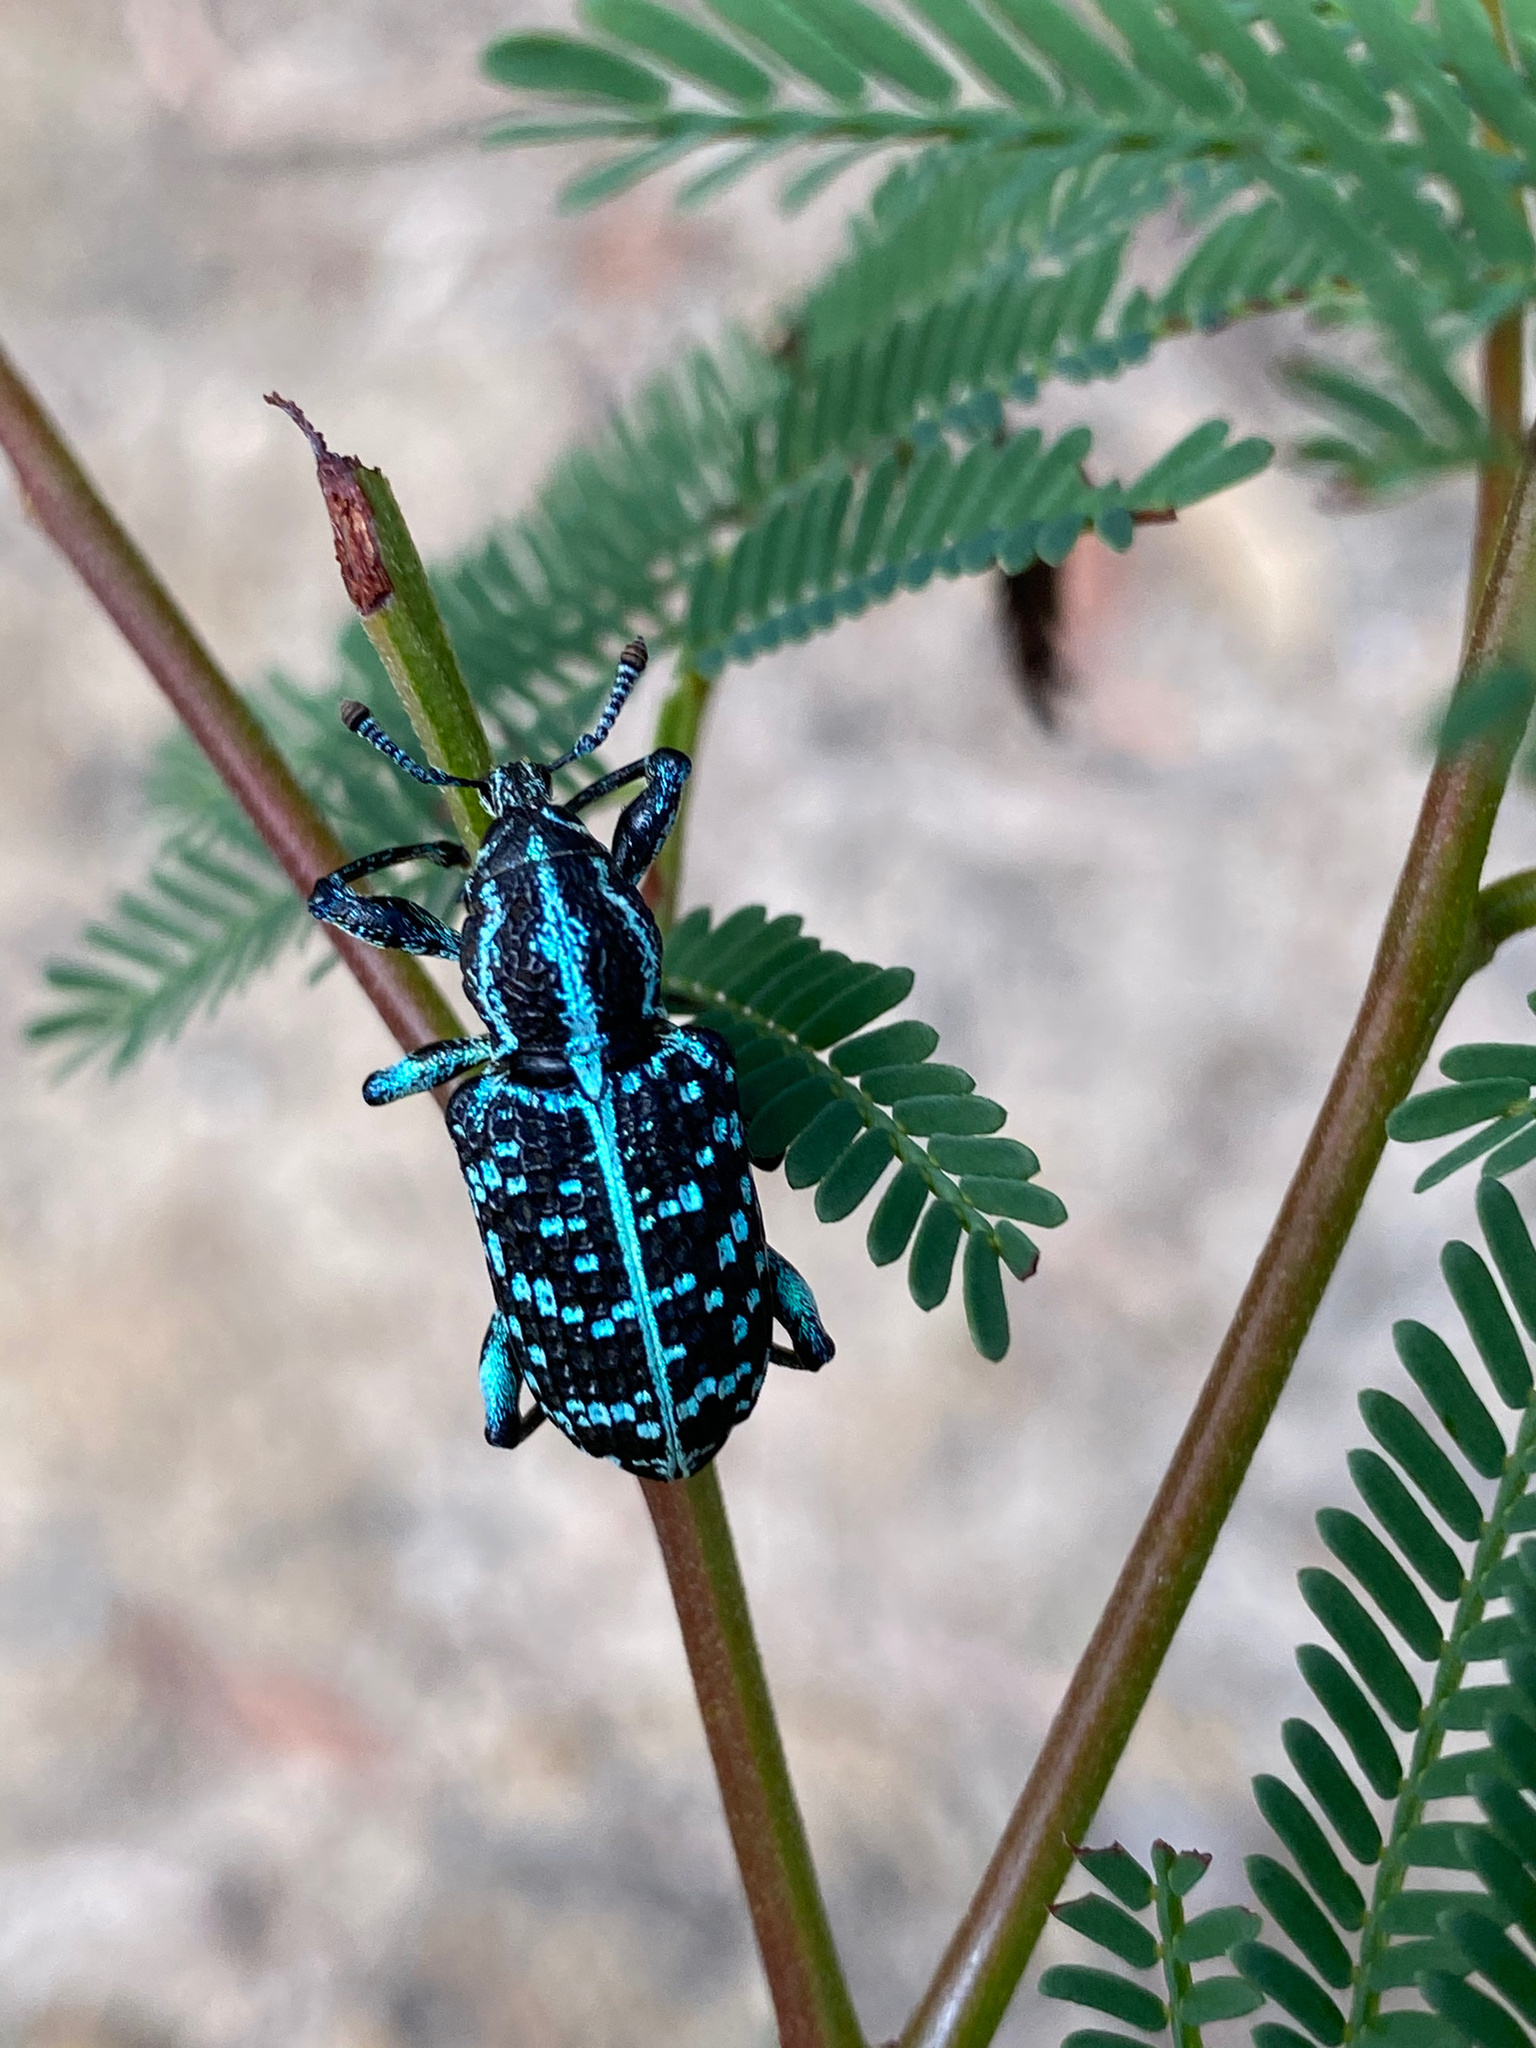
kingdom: Animalia
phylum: Arthropoda
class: Insecta
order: Coleoptera
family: Curculionidae
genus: Chrysolopus
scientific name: Chrysolopus spectabilis
